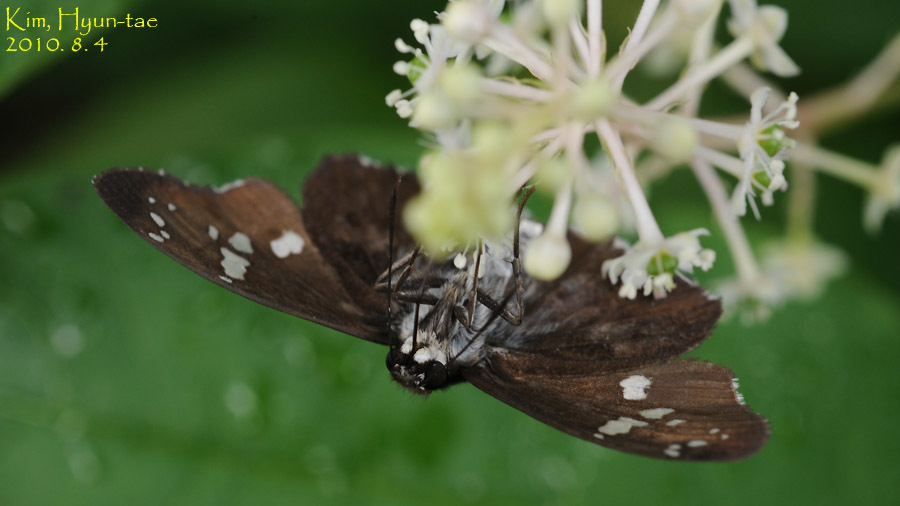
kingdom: Animalia
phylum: Arthropoda
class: Insecta
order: Lepidoptera
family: Hesperiidae
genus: Daimio
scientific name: Daimio tethys
